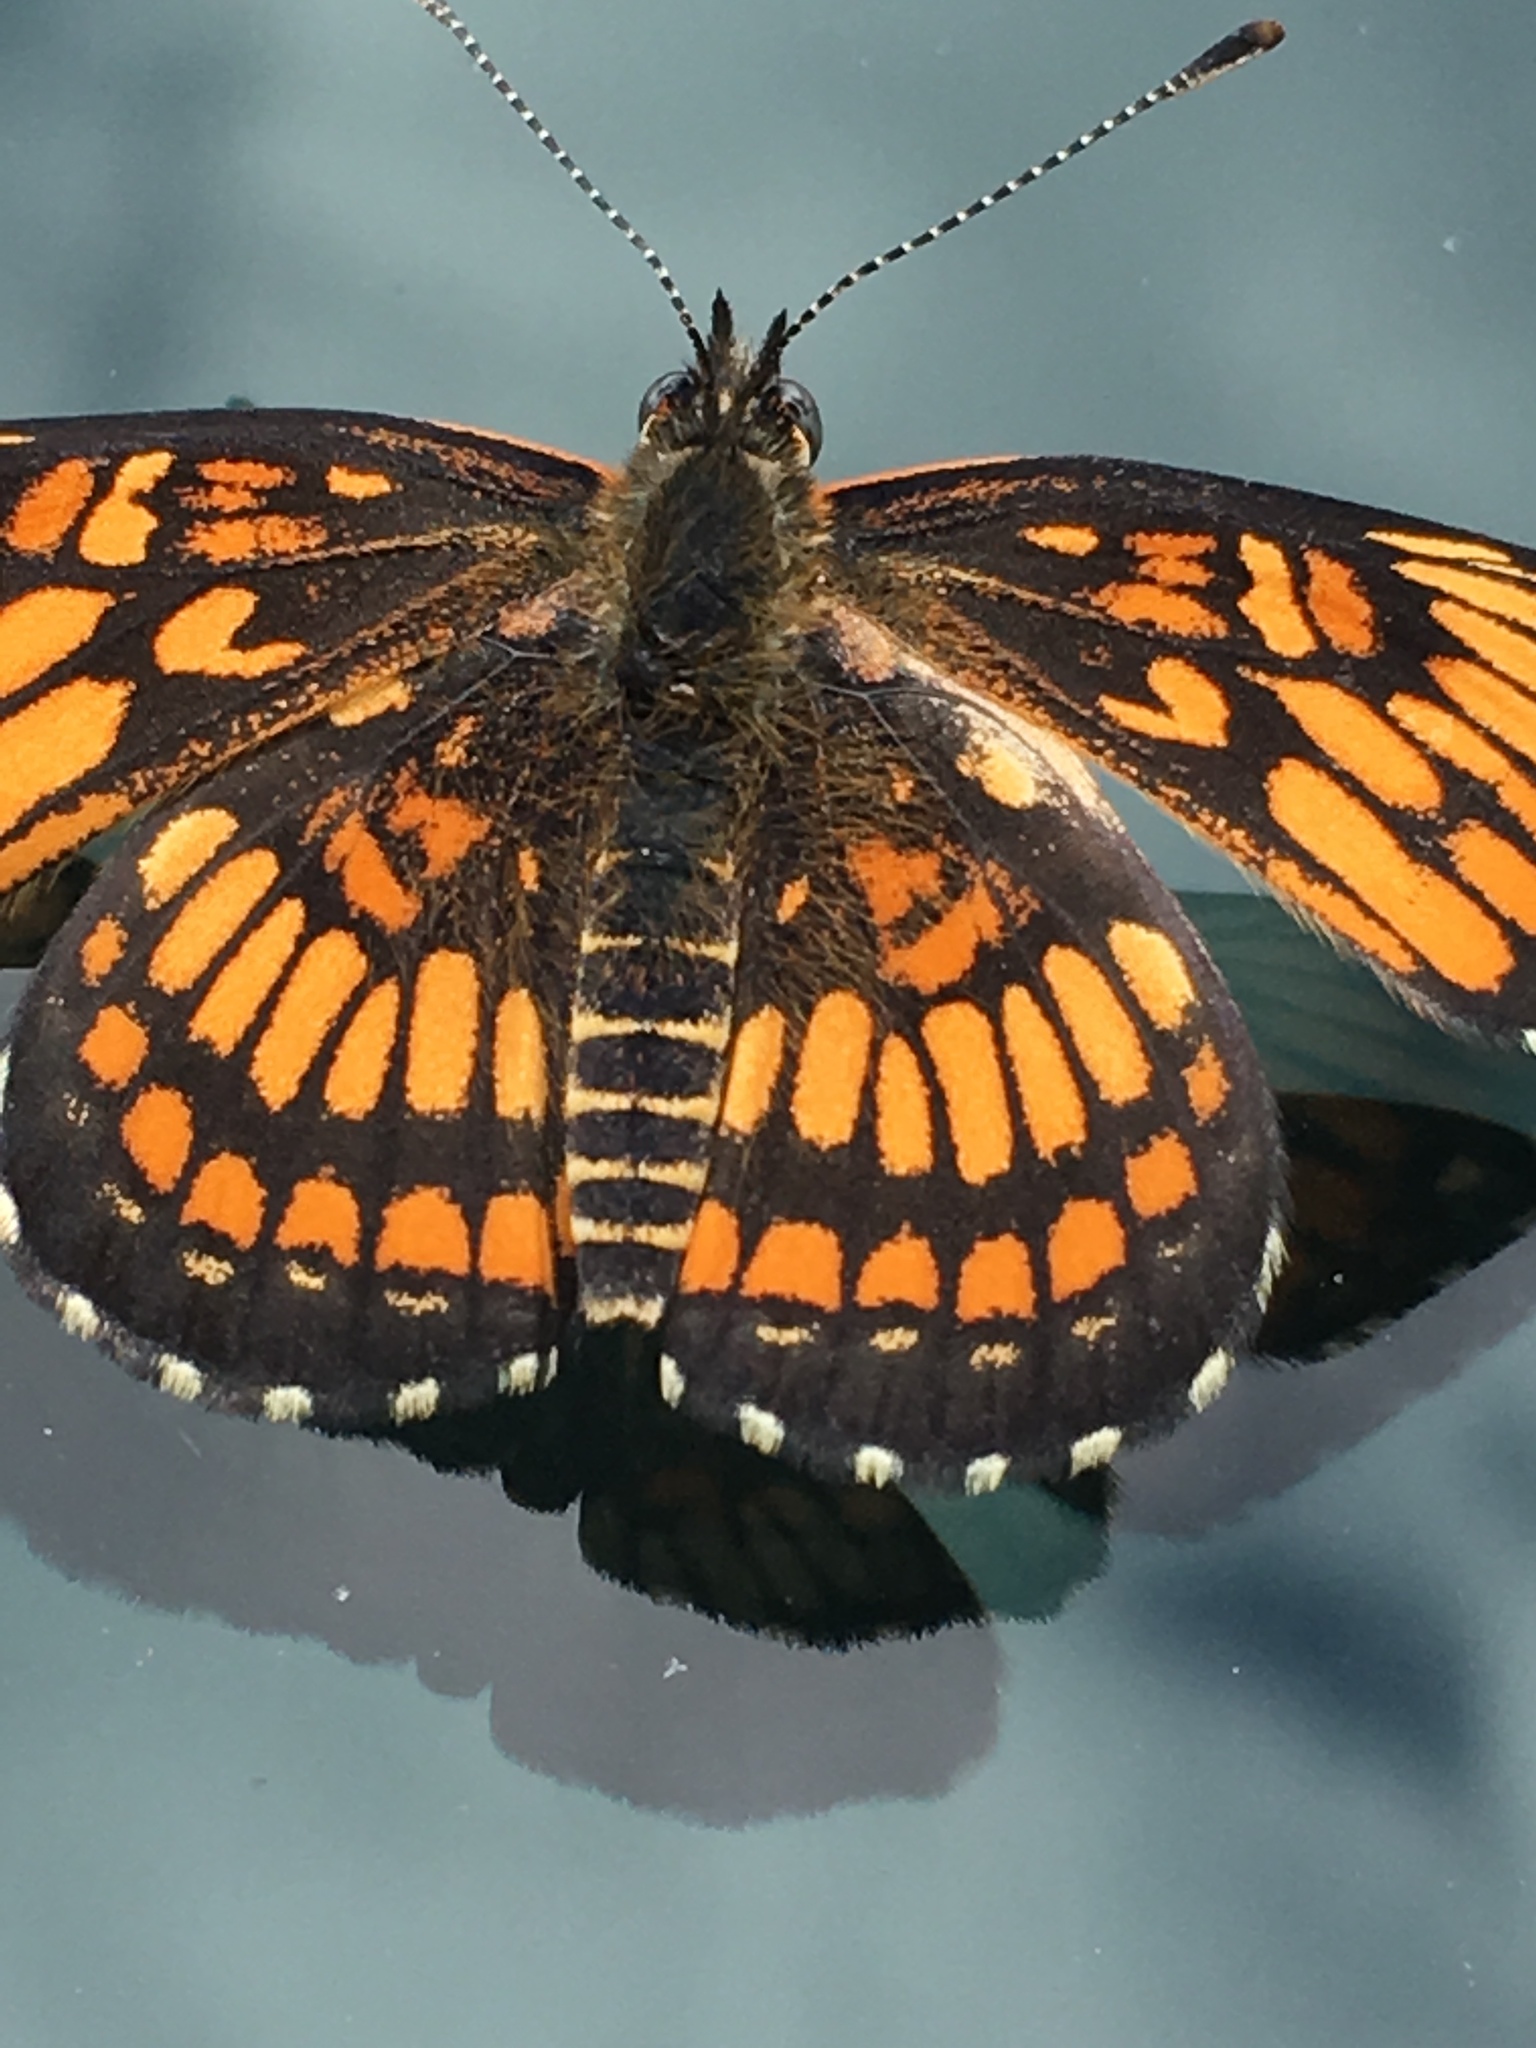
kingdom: Animalia
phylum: Arthropoda
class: Insecta
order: Lepidoptera
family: Nymphalidae
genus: Thessalia
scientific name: Thessalia theona
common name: Nymphalid moth
